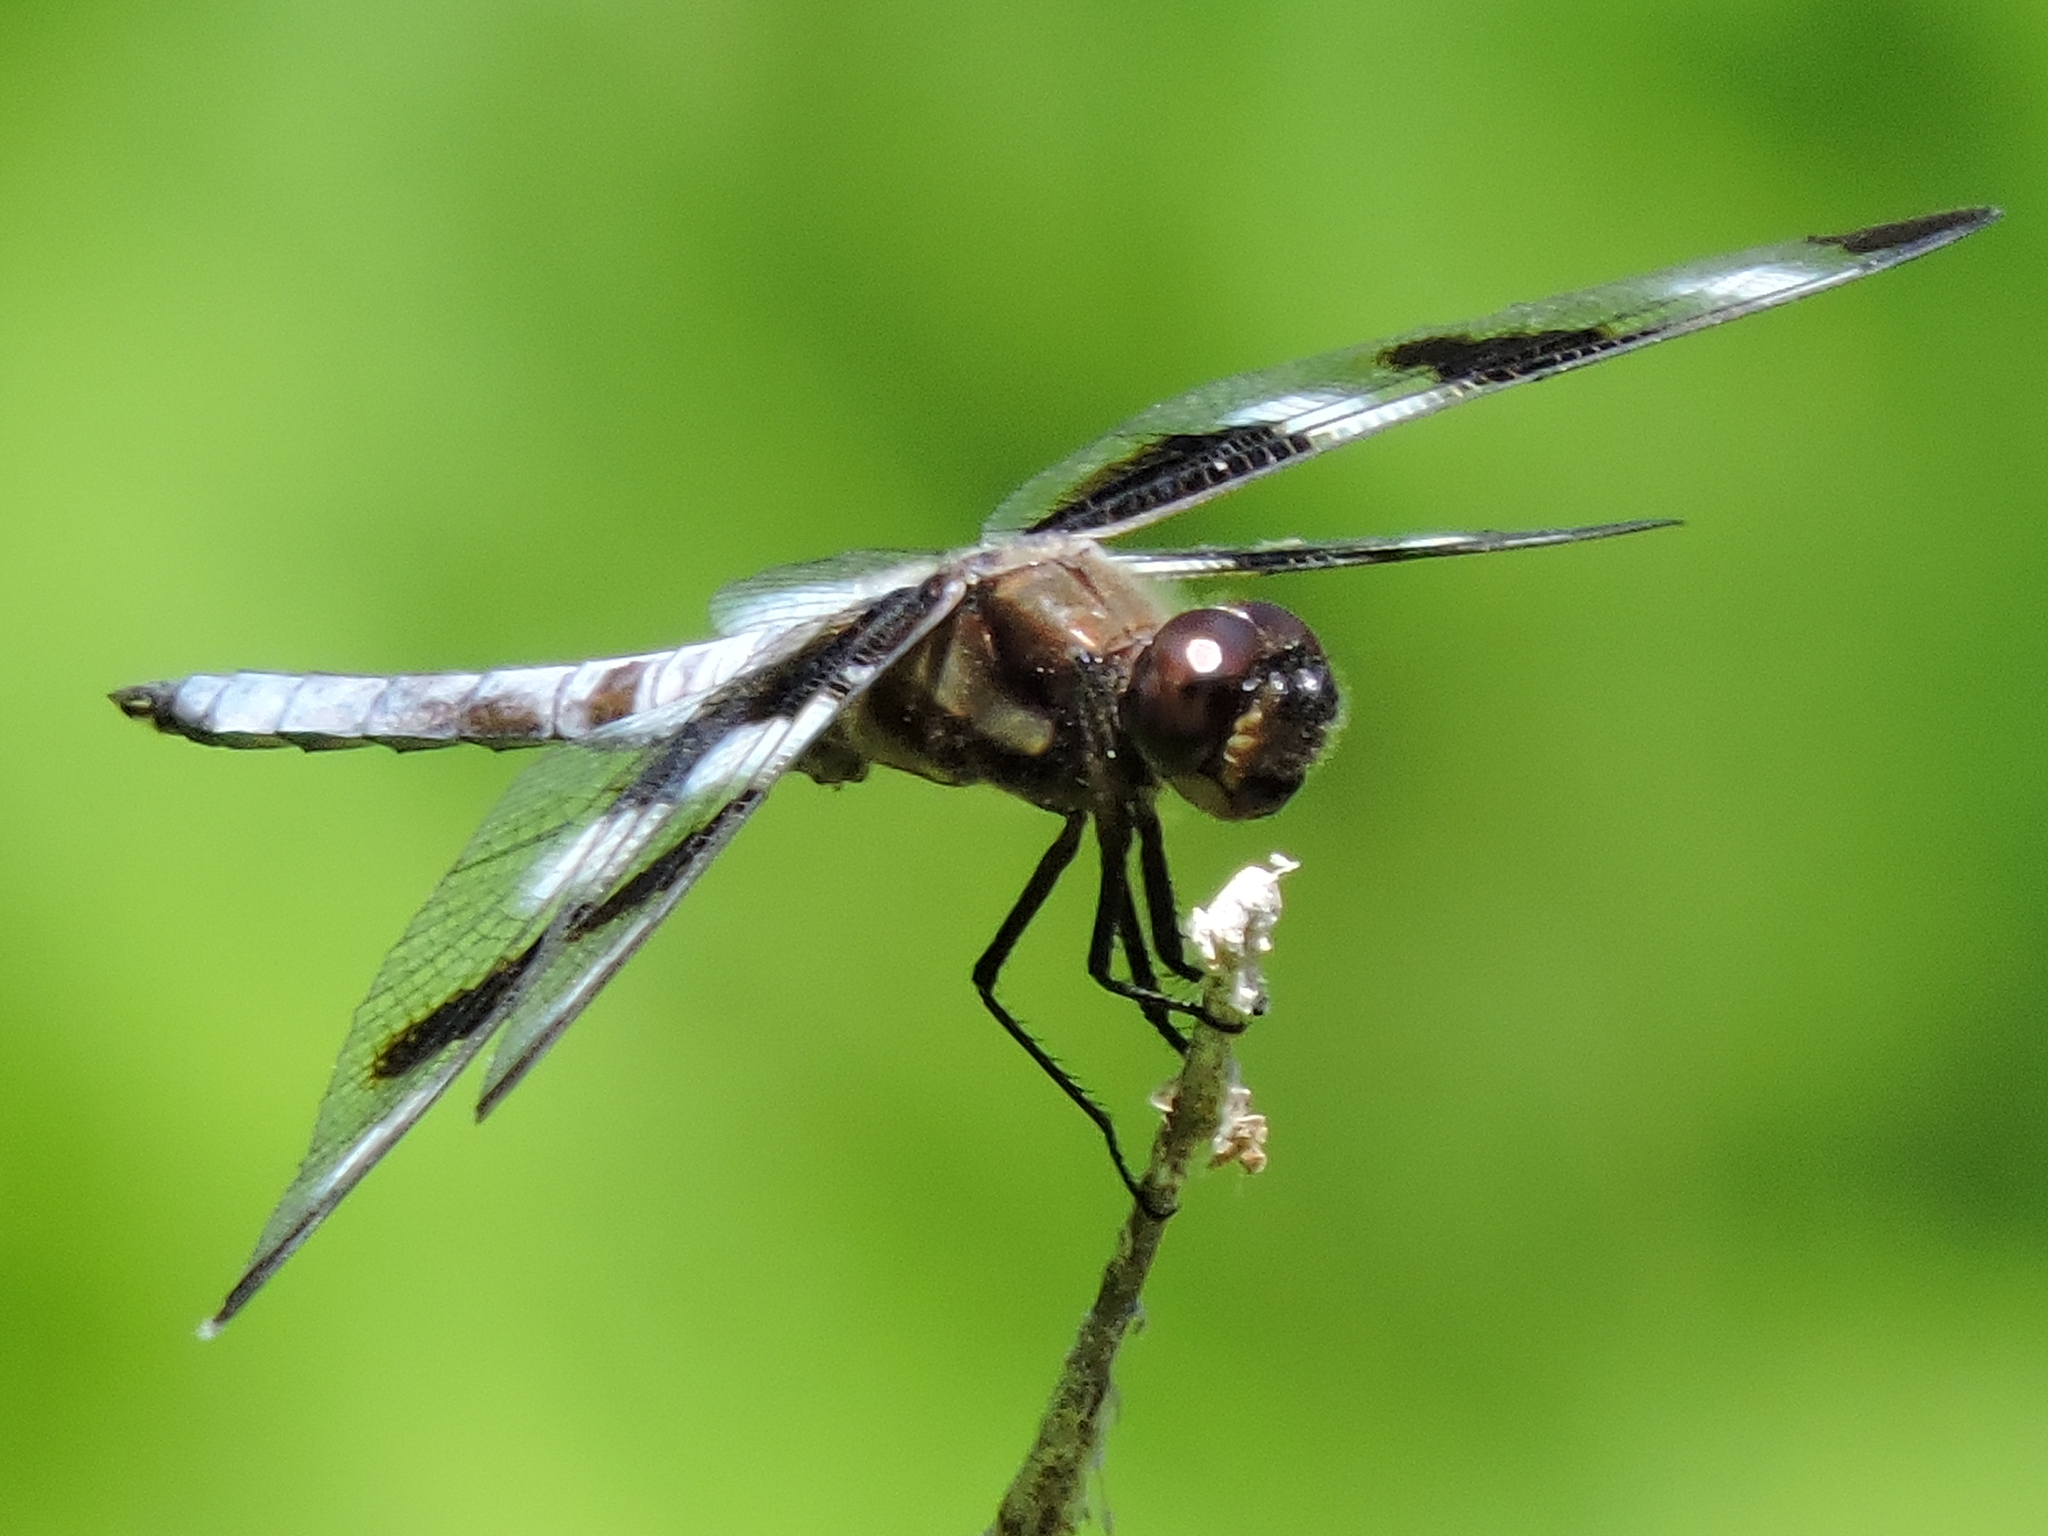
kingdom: Animalia
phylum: Arthropoda
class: Insecta
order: Odonata
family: Libellulidae
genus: Libellula
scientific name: Libellula pulchella
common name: Twelve-spotted skimmer
